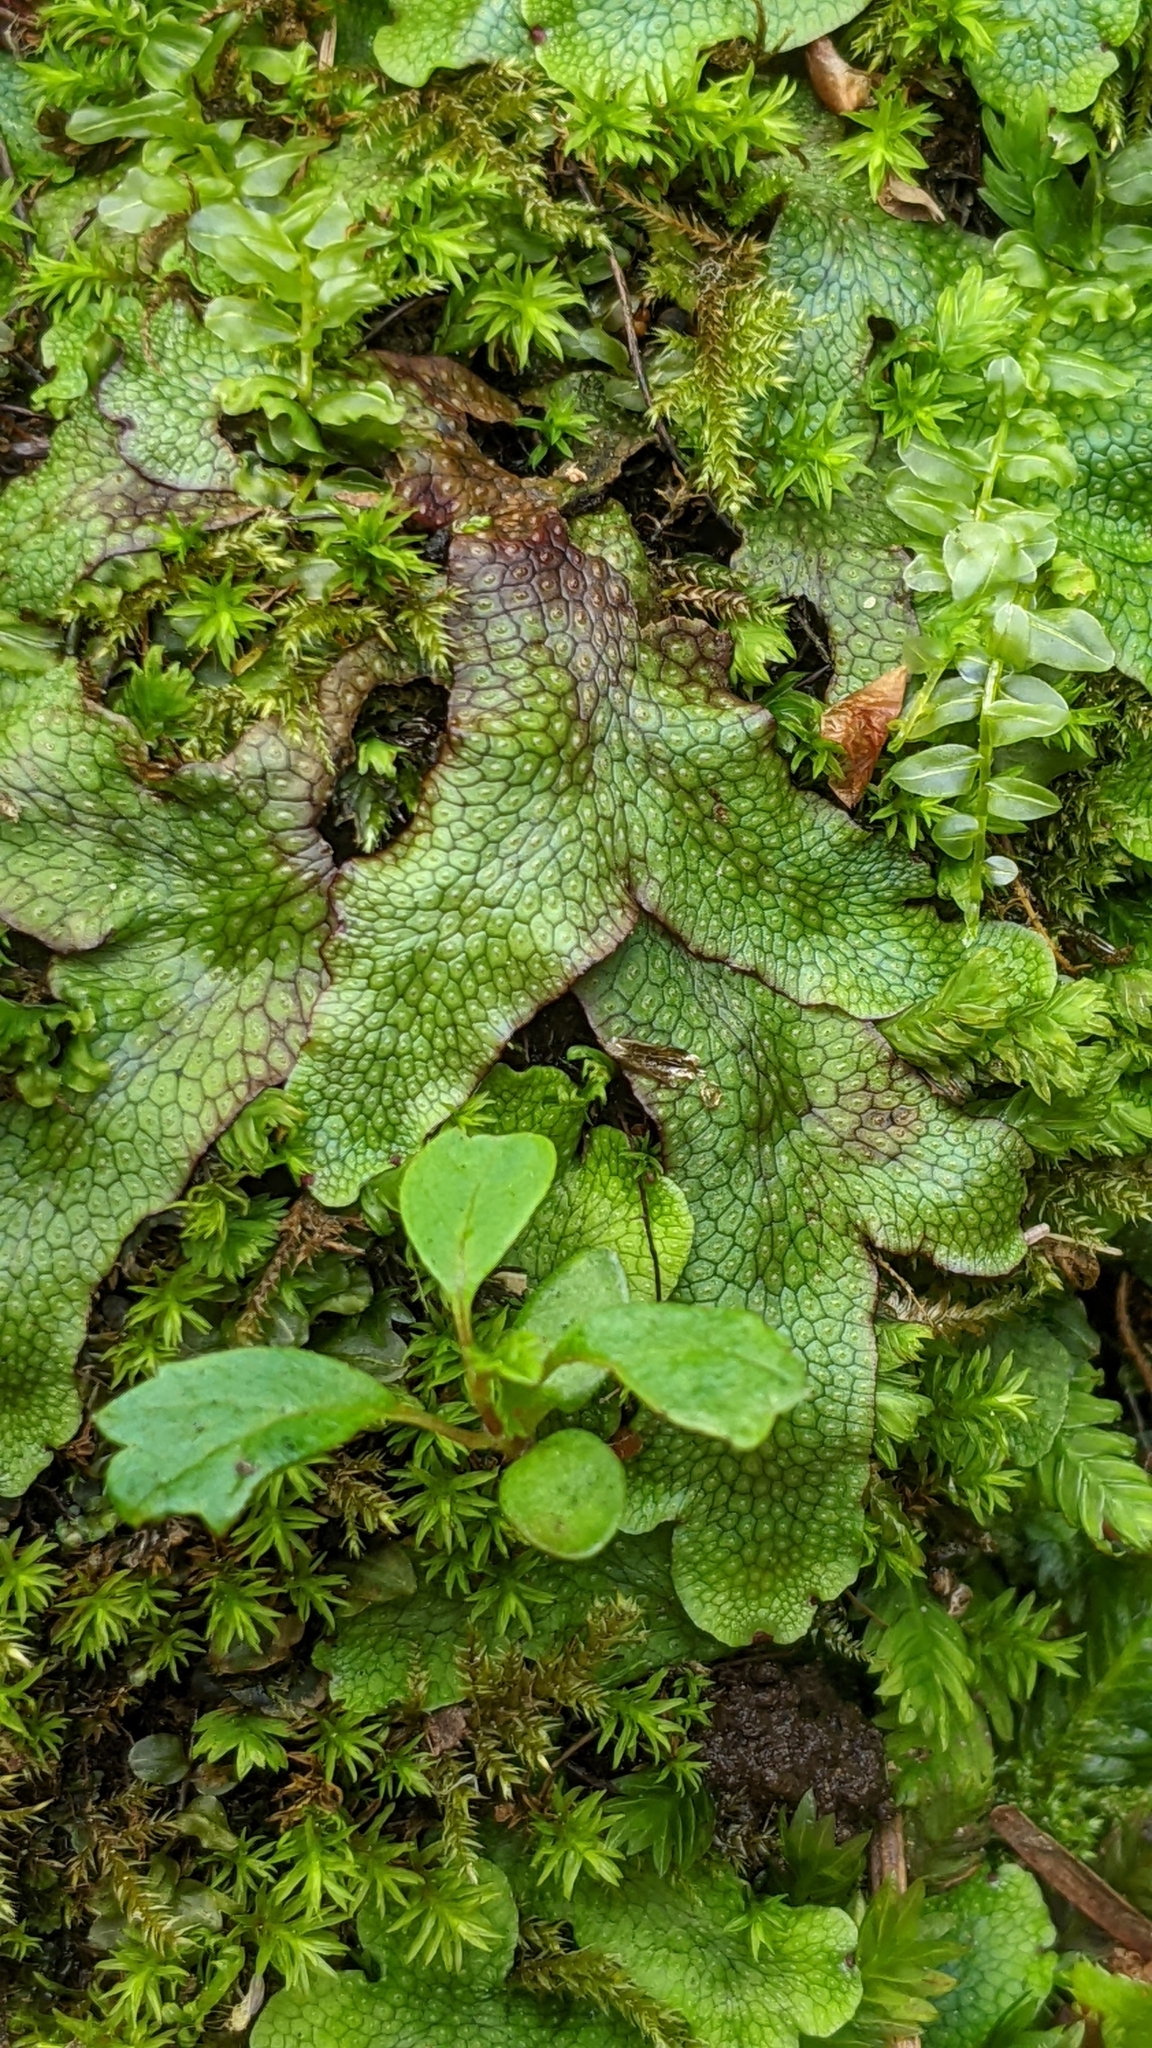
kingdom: Plantae
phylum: Marchantiophyta
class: Marchantiopsida
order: Marchantiales
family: Conocephalaceae
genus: Conocephalum
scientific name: Conocephalum salebrosum
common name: Cat-tongue liverwort
